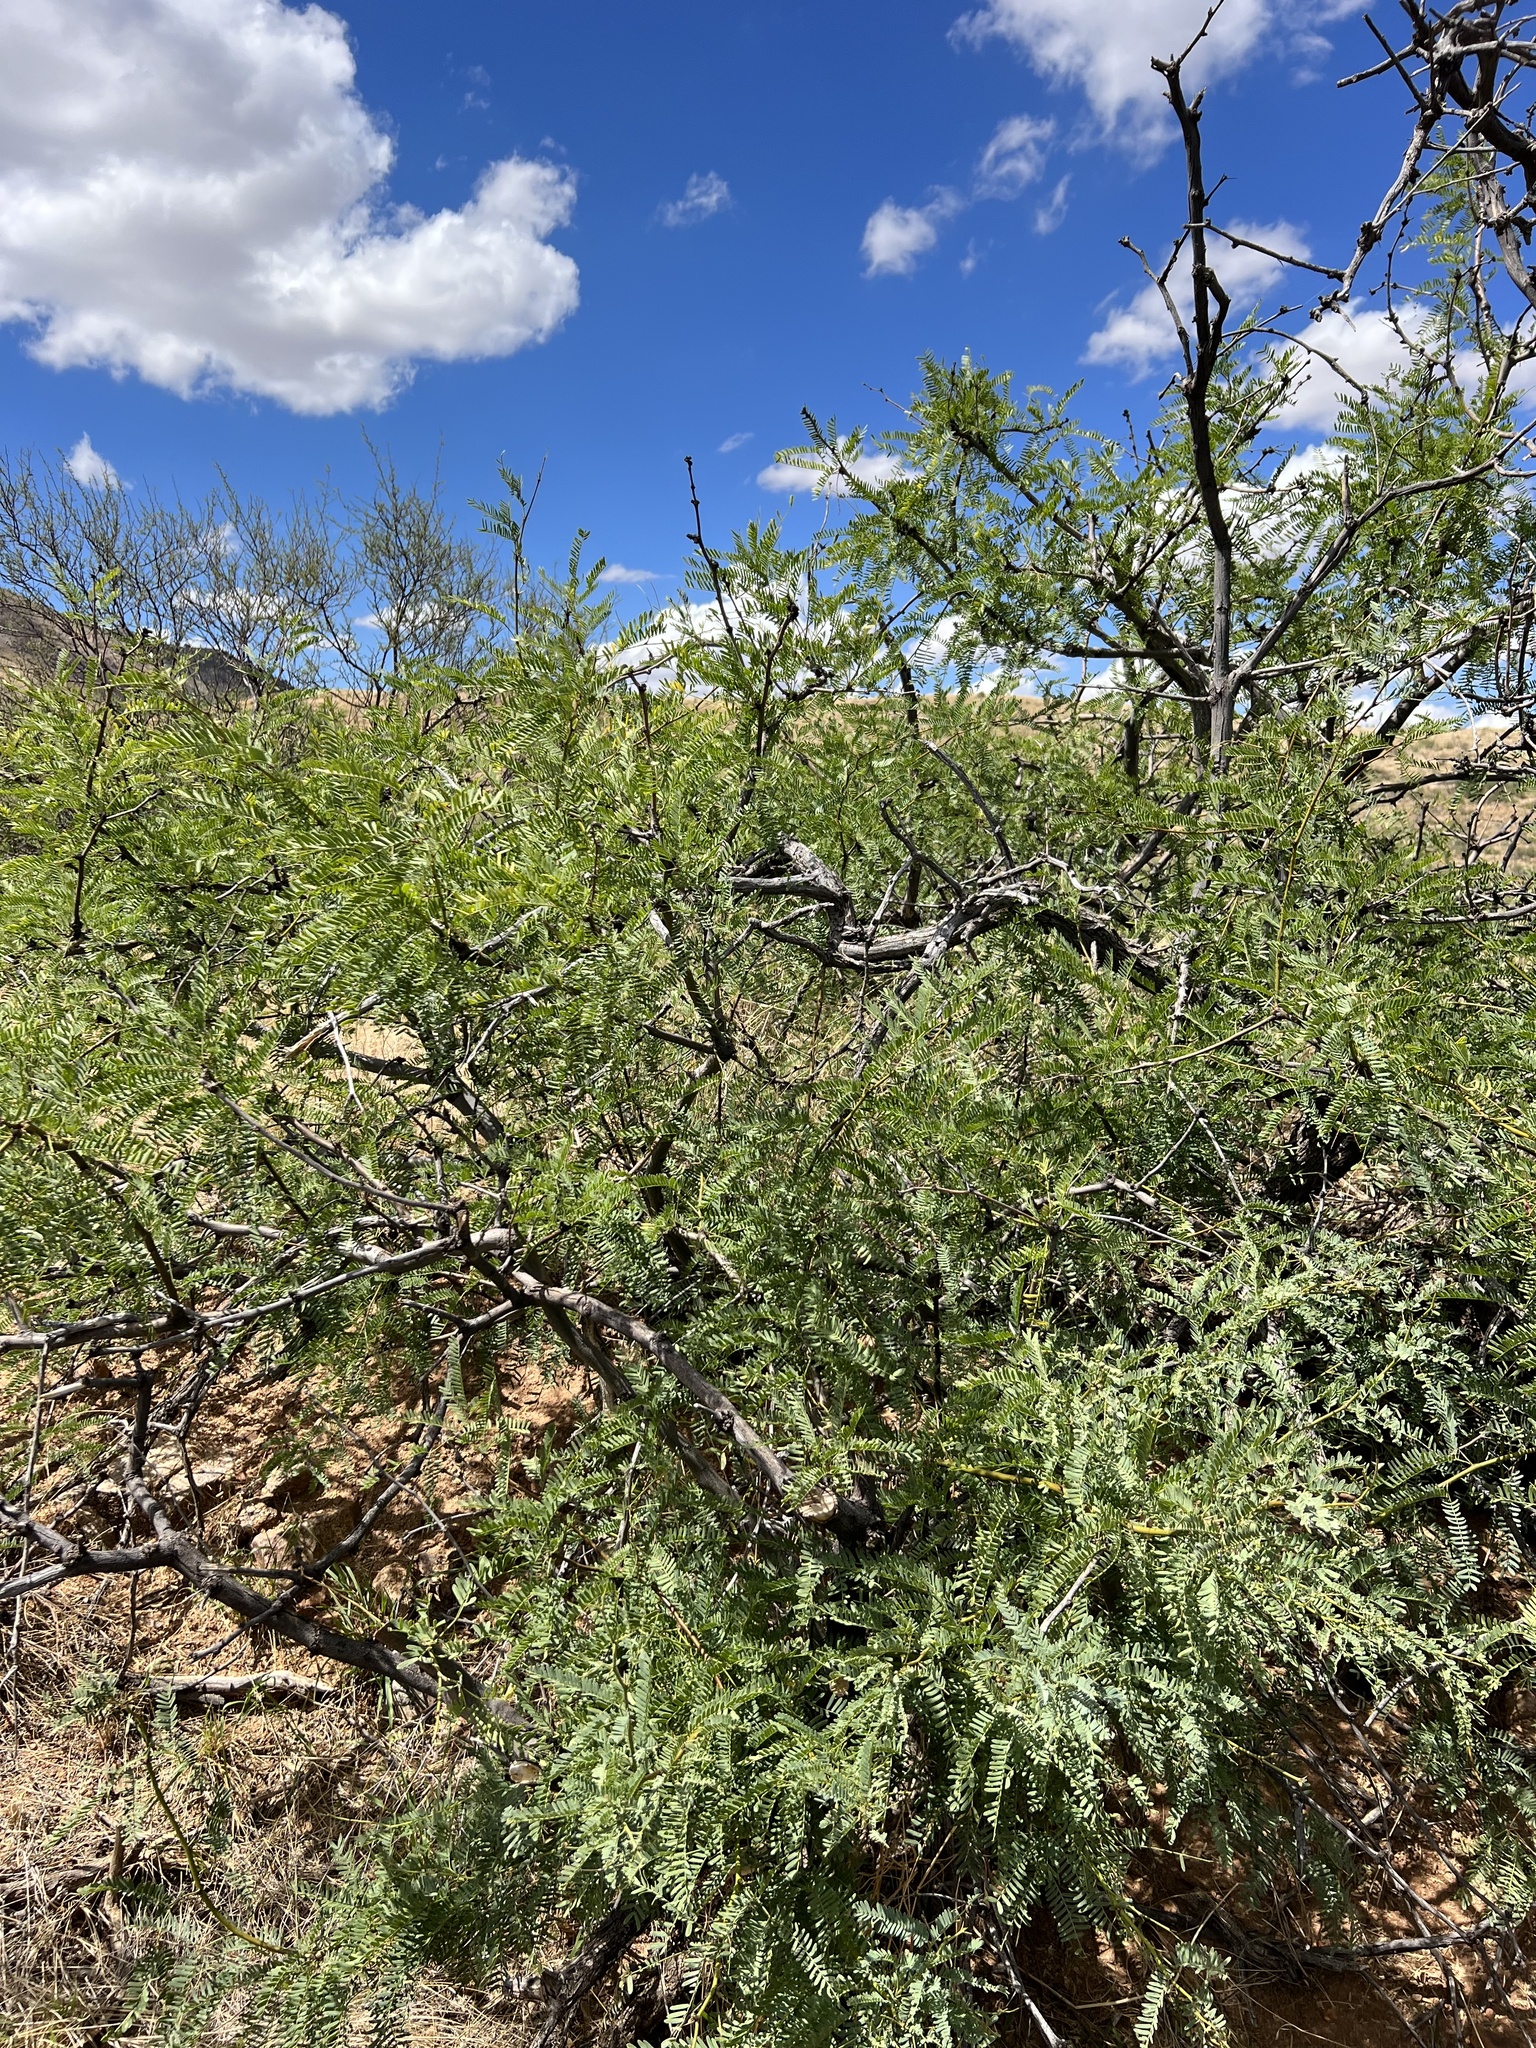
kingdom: Plantae
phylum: Tracheophyta
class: Magnoliopsida
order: Fabales
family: Fabaceae
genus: Prosopis
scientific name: Prosopis velutina
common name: Velvet mesquite
